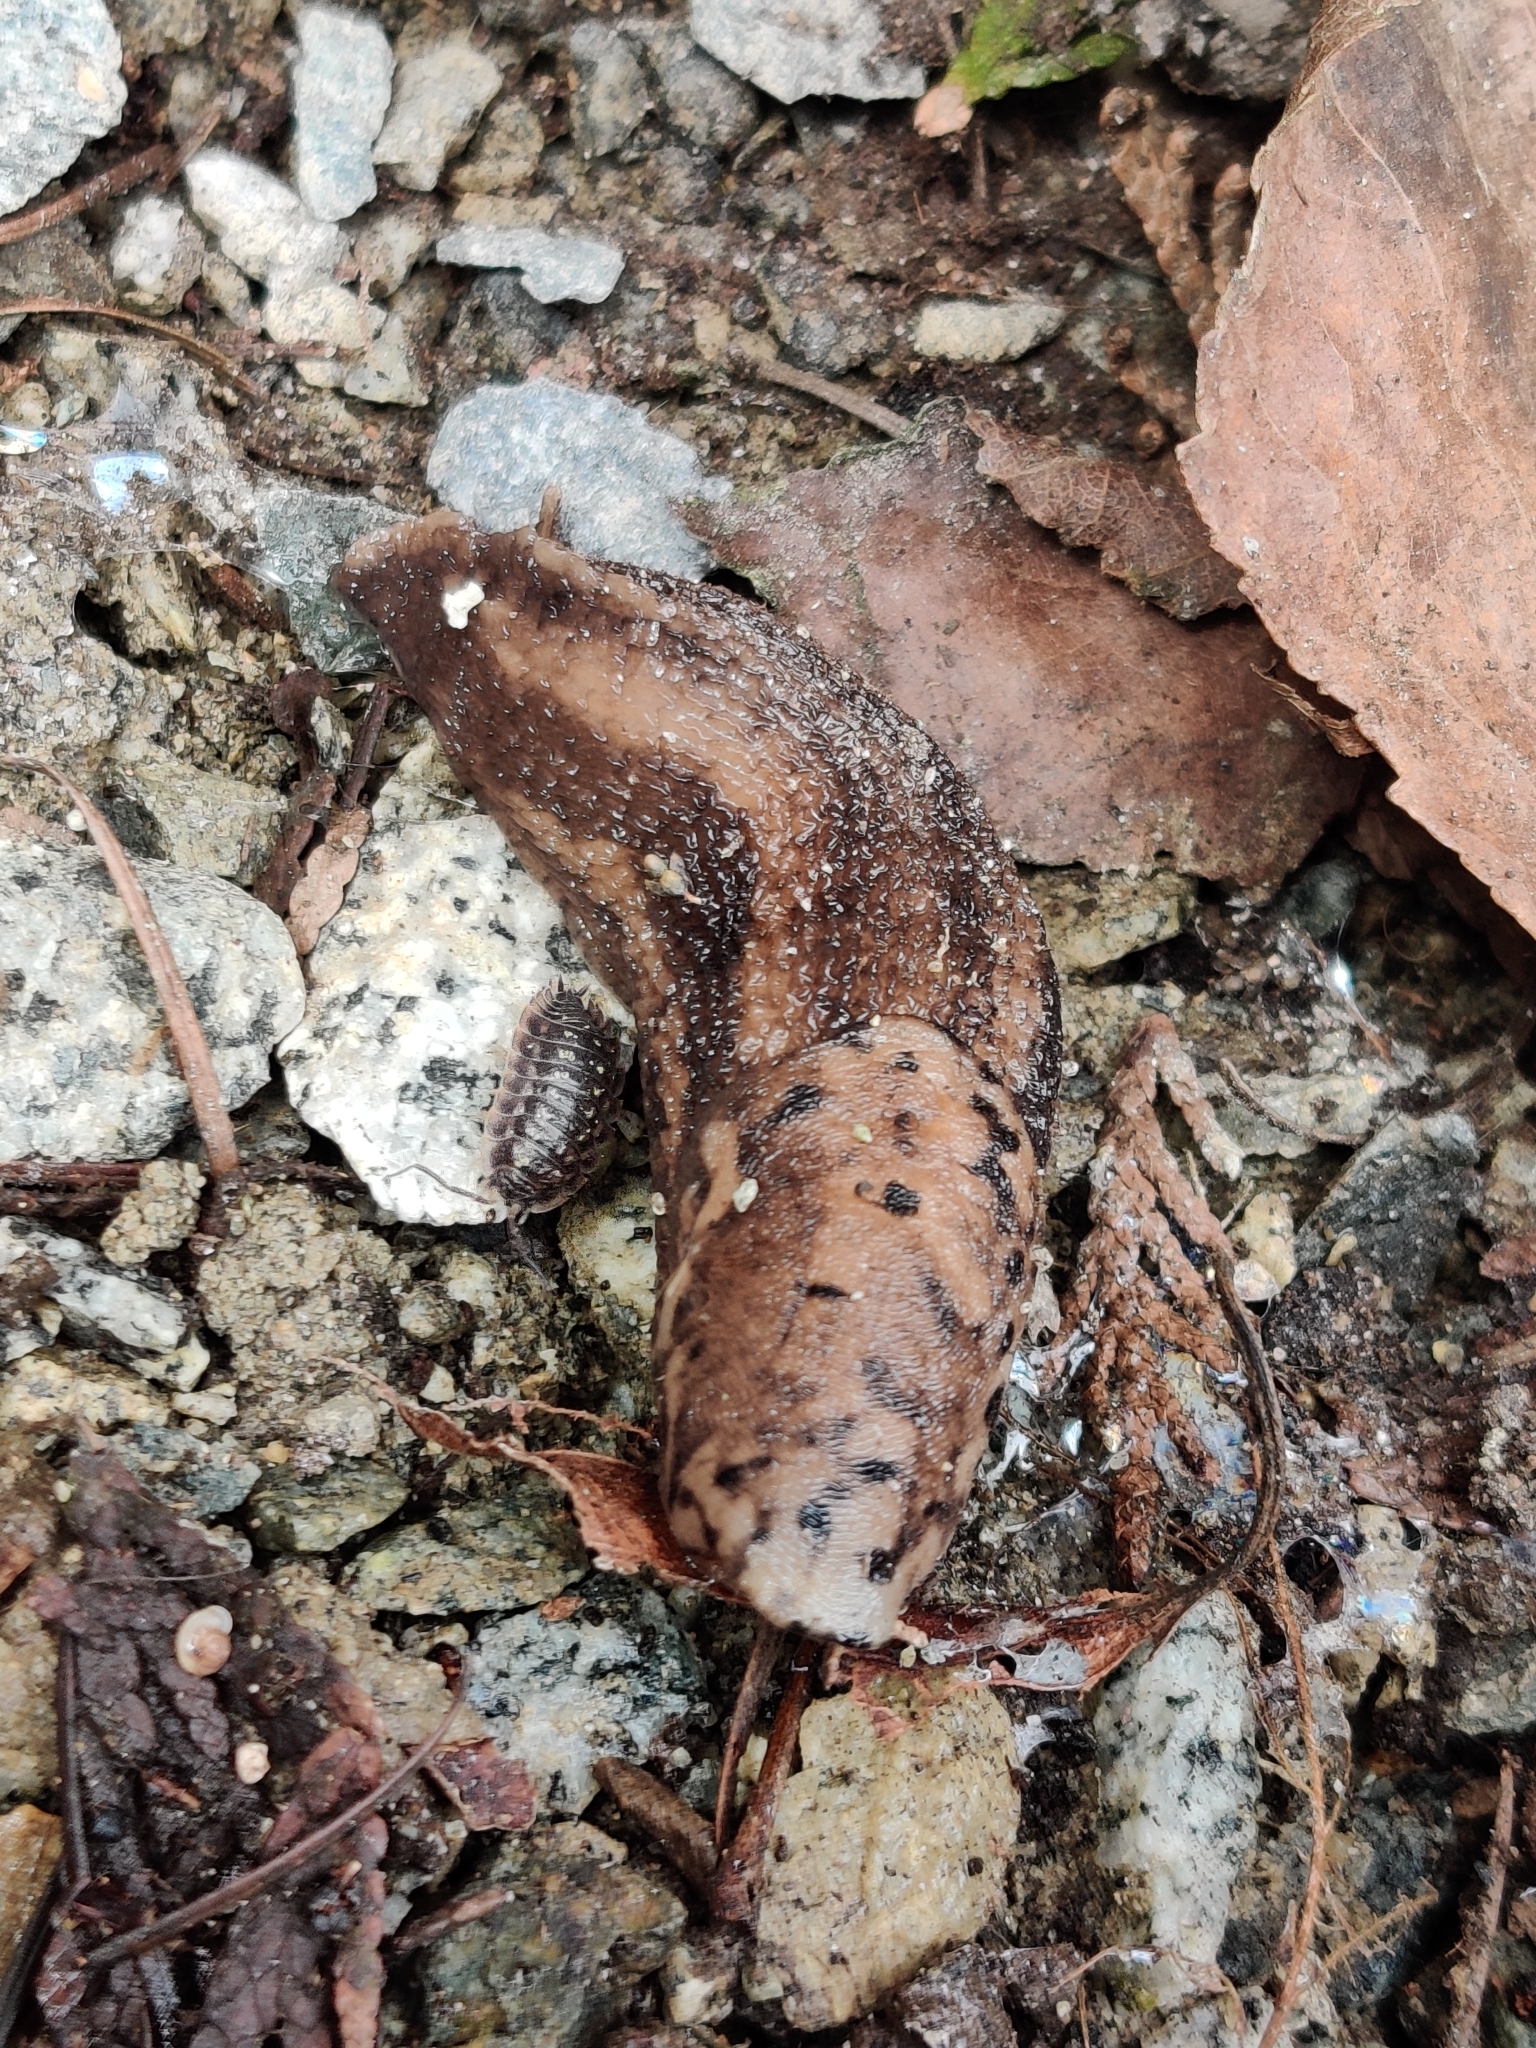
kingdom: Animalia
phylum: Mollusca
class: Gastropoda
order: Stylommatophora
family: Limacidae
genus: Limax
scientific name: Limax maximus
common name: Great grey slug
